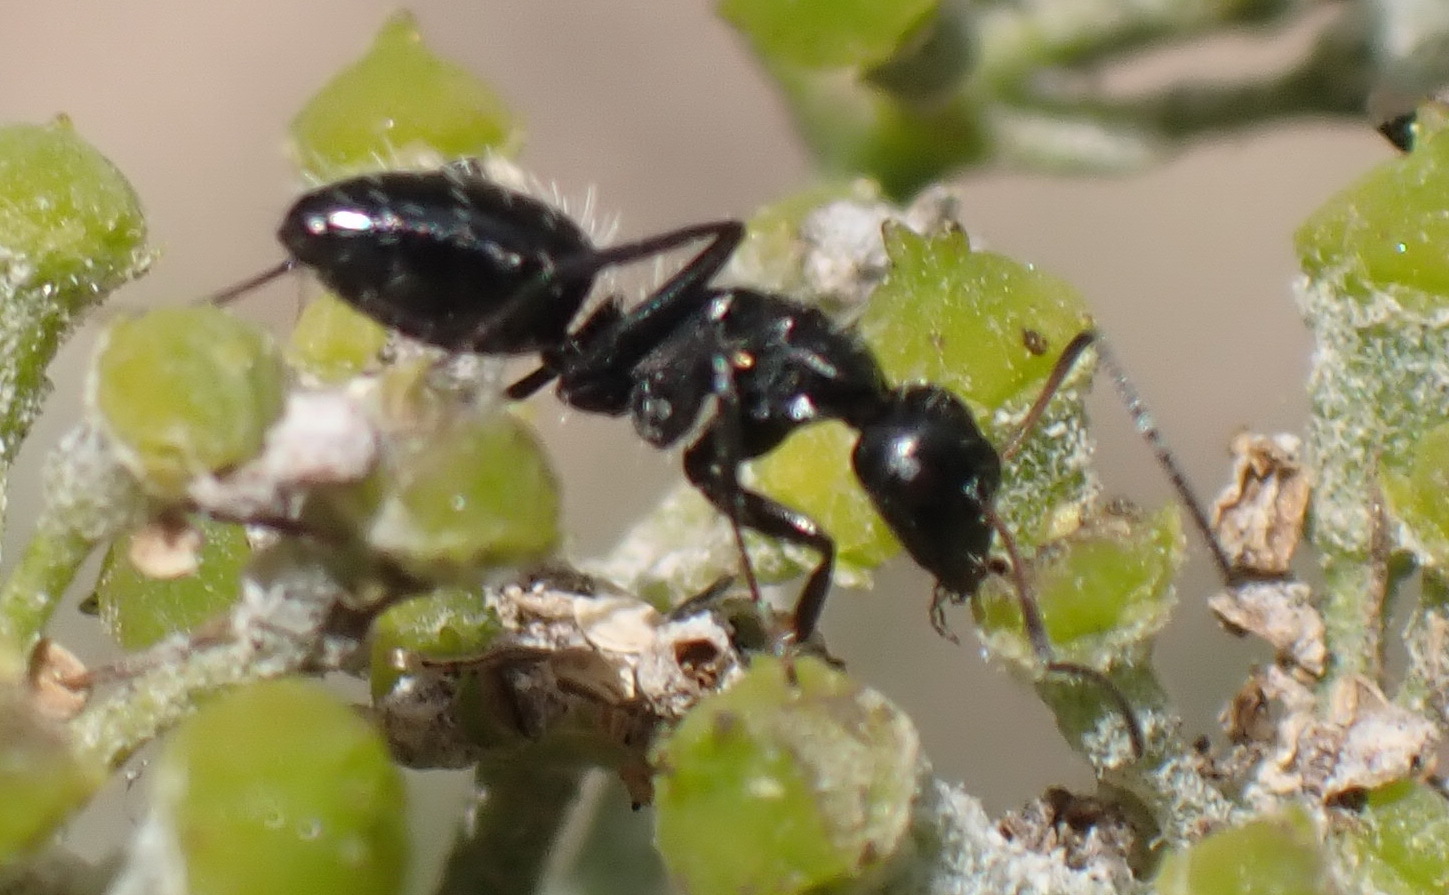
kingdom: Animalia
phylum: Arthropoda
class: Insecta
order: Hymenoptera
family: Formicidae
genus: Camponotus
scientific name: Camponotus niveosetosus
